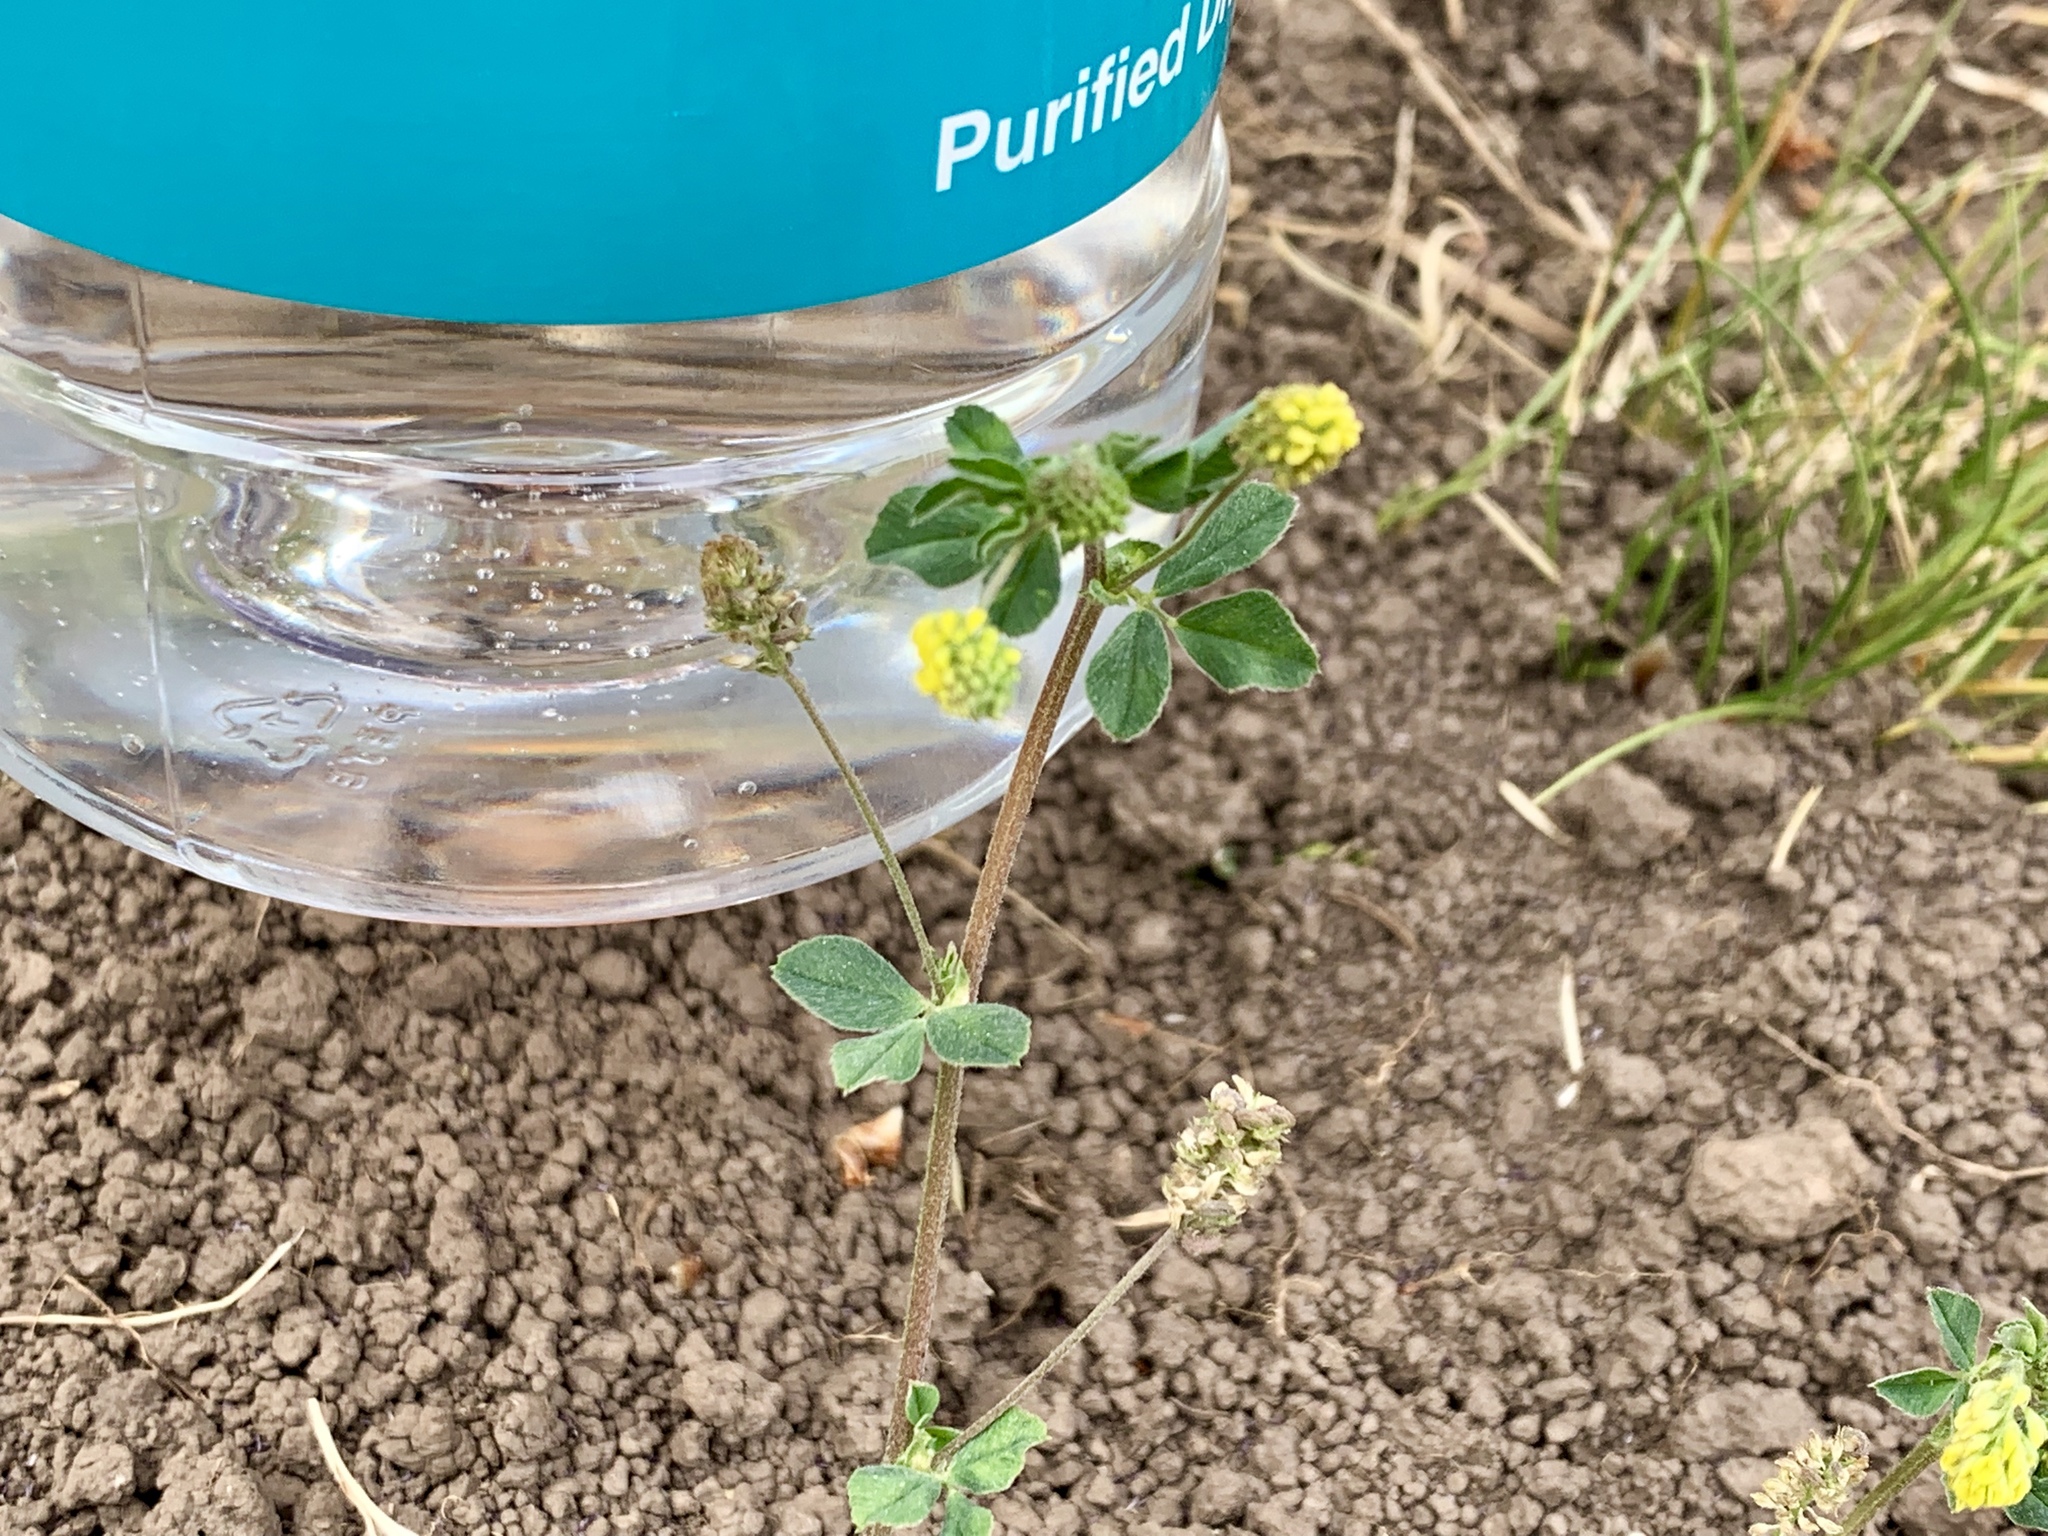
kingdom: Plantae
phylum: Tracheophyta
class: Magnoliopsida
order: Fabales
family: Fabaceae
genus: Medicago
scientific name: Medicago lupulina
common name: Black medick
